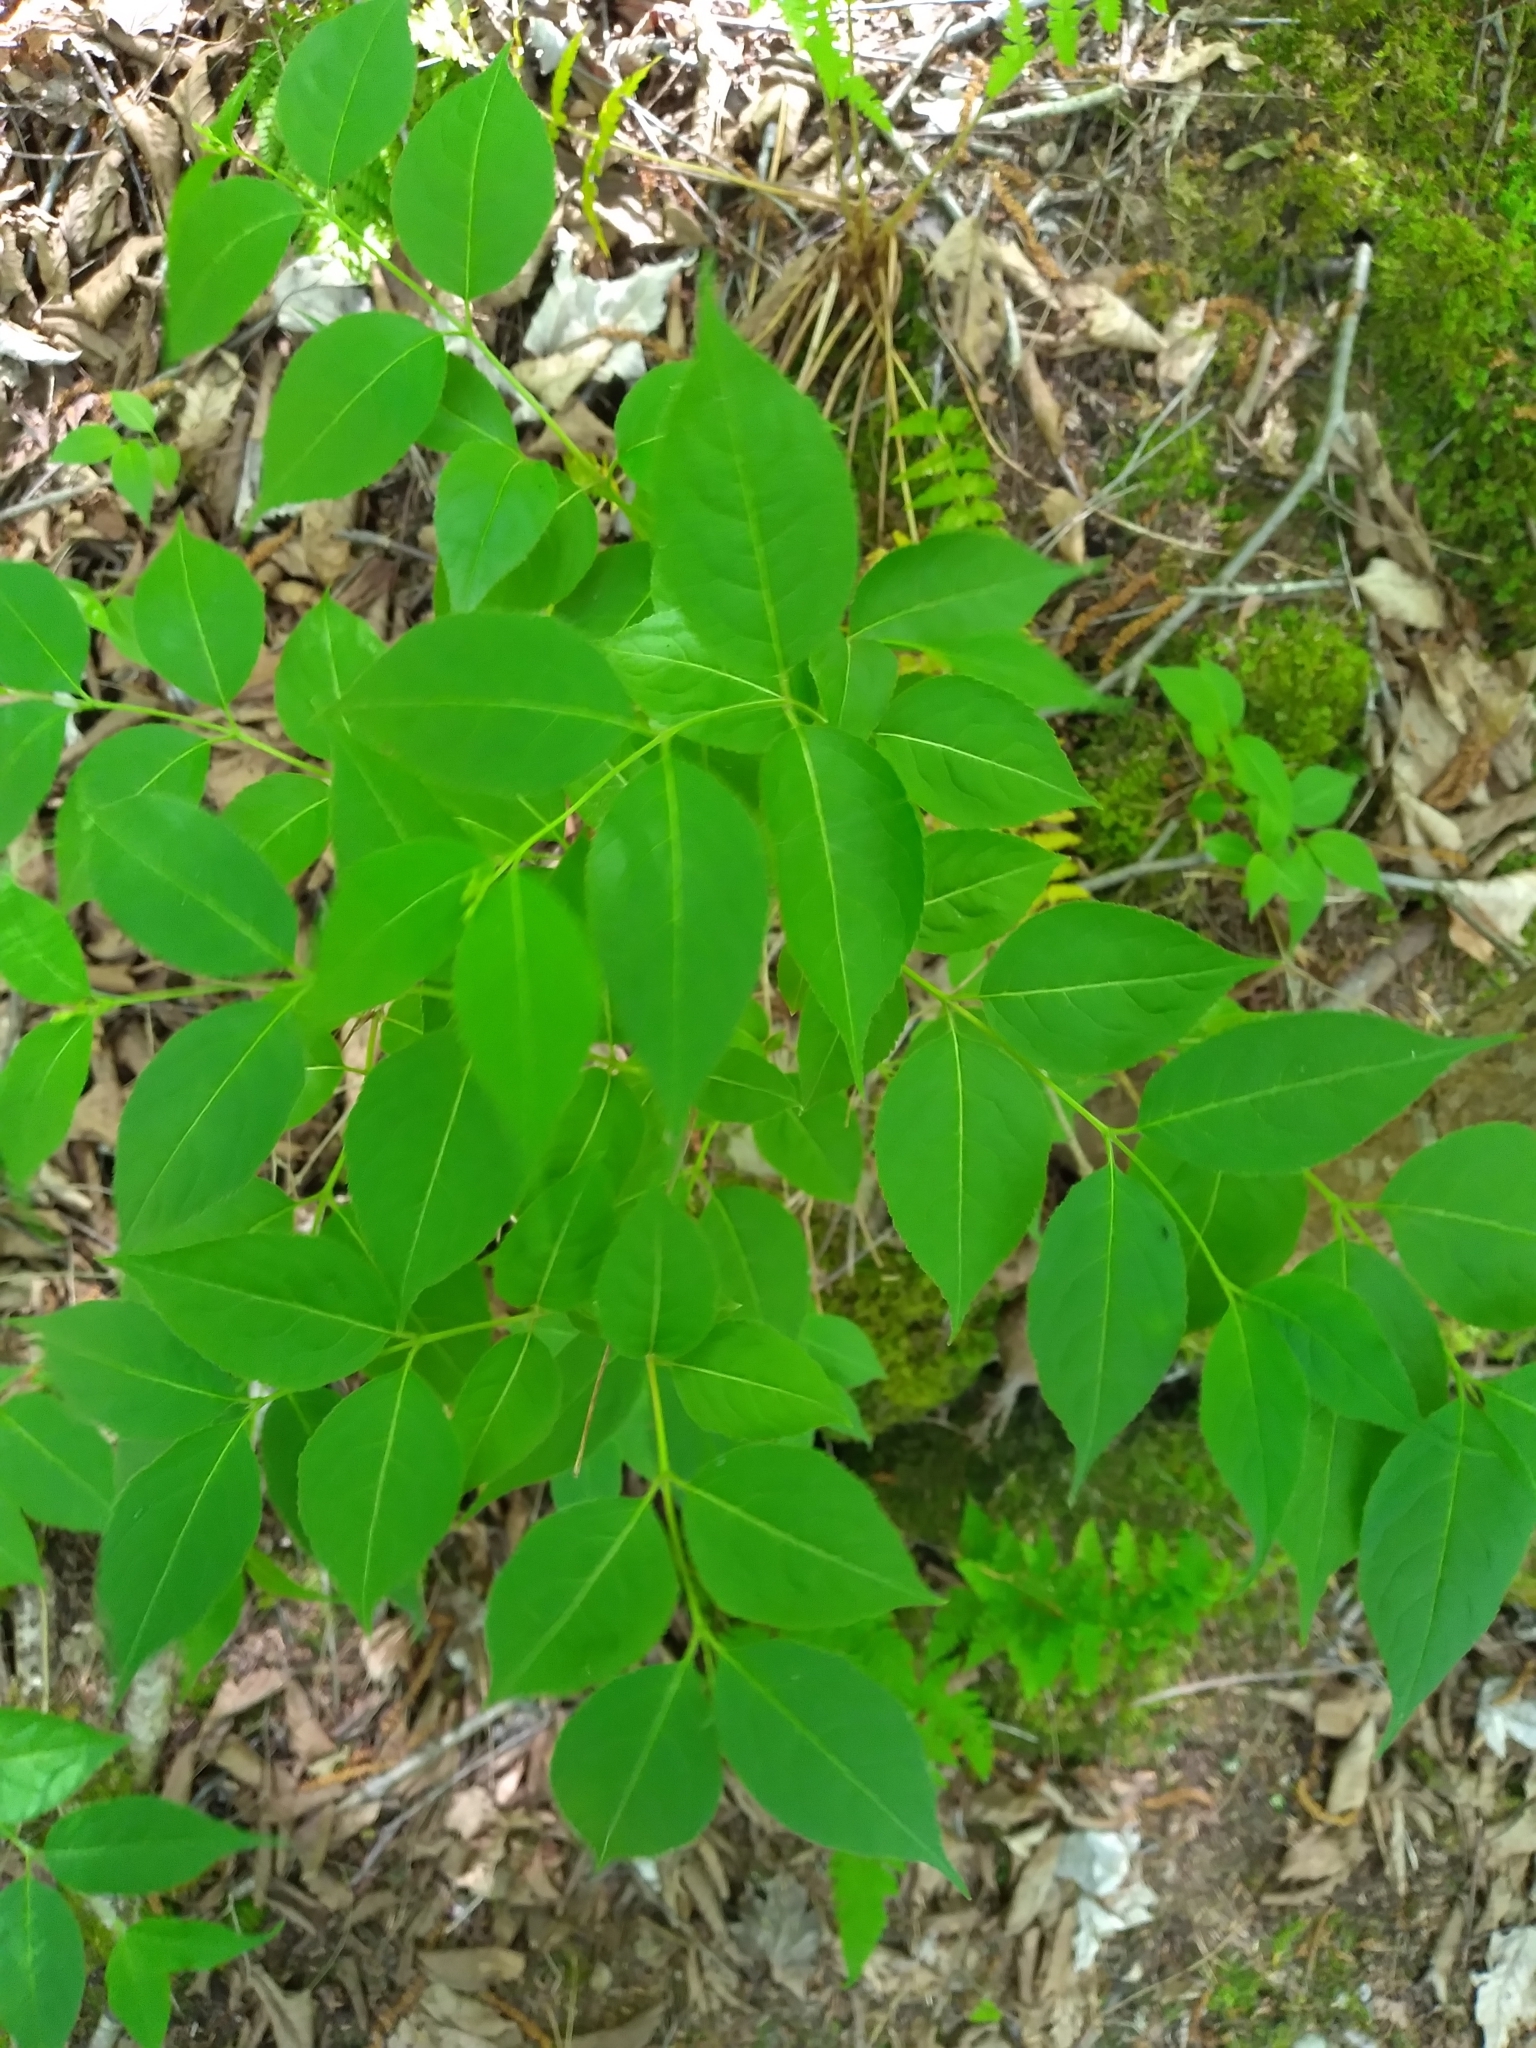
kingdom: Plantae
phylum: Tracheophyta
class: Magnoliopsida
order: Dipsacales
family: Caprifoliaceae
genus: Diervilla
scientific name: Diervilla lonicera
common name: Bush-honeysuckle
